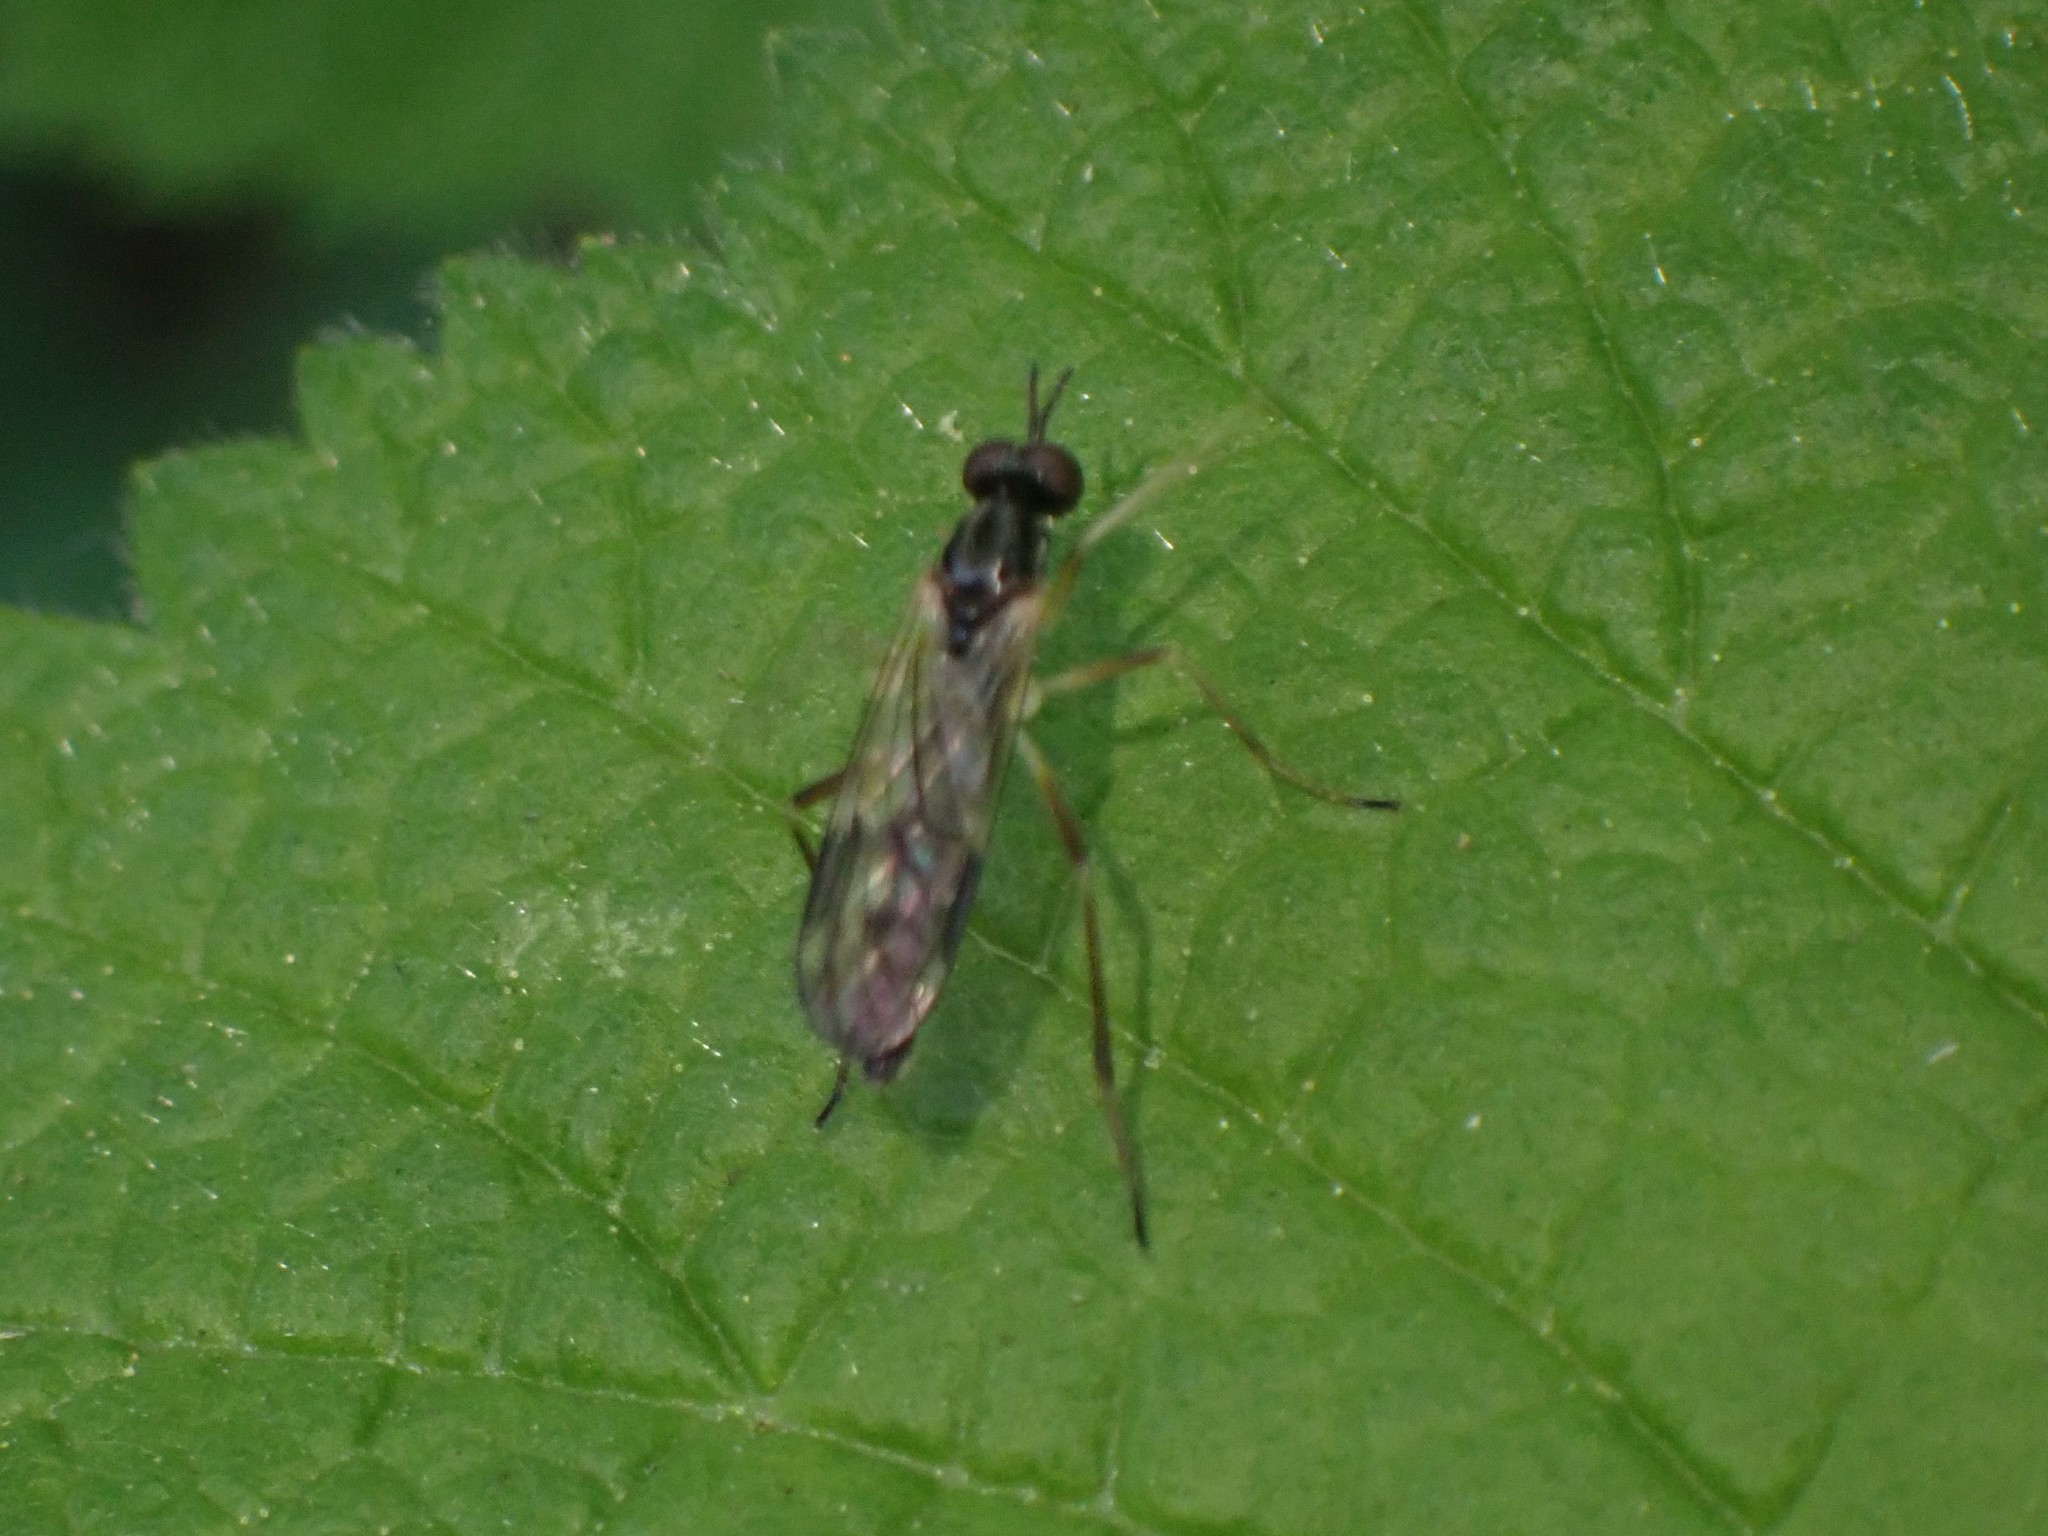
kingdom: Animalia
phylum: Arthropoda
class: Insecta
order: Diptera
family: Xylophagidae
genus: Xylophagus
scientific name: Xylophagus gracilis
